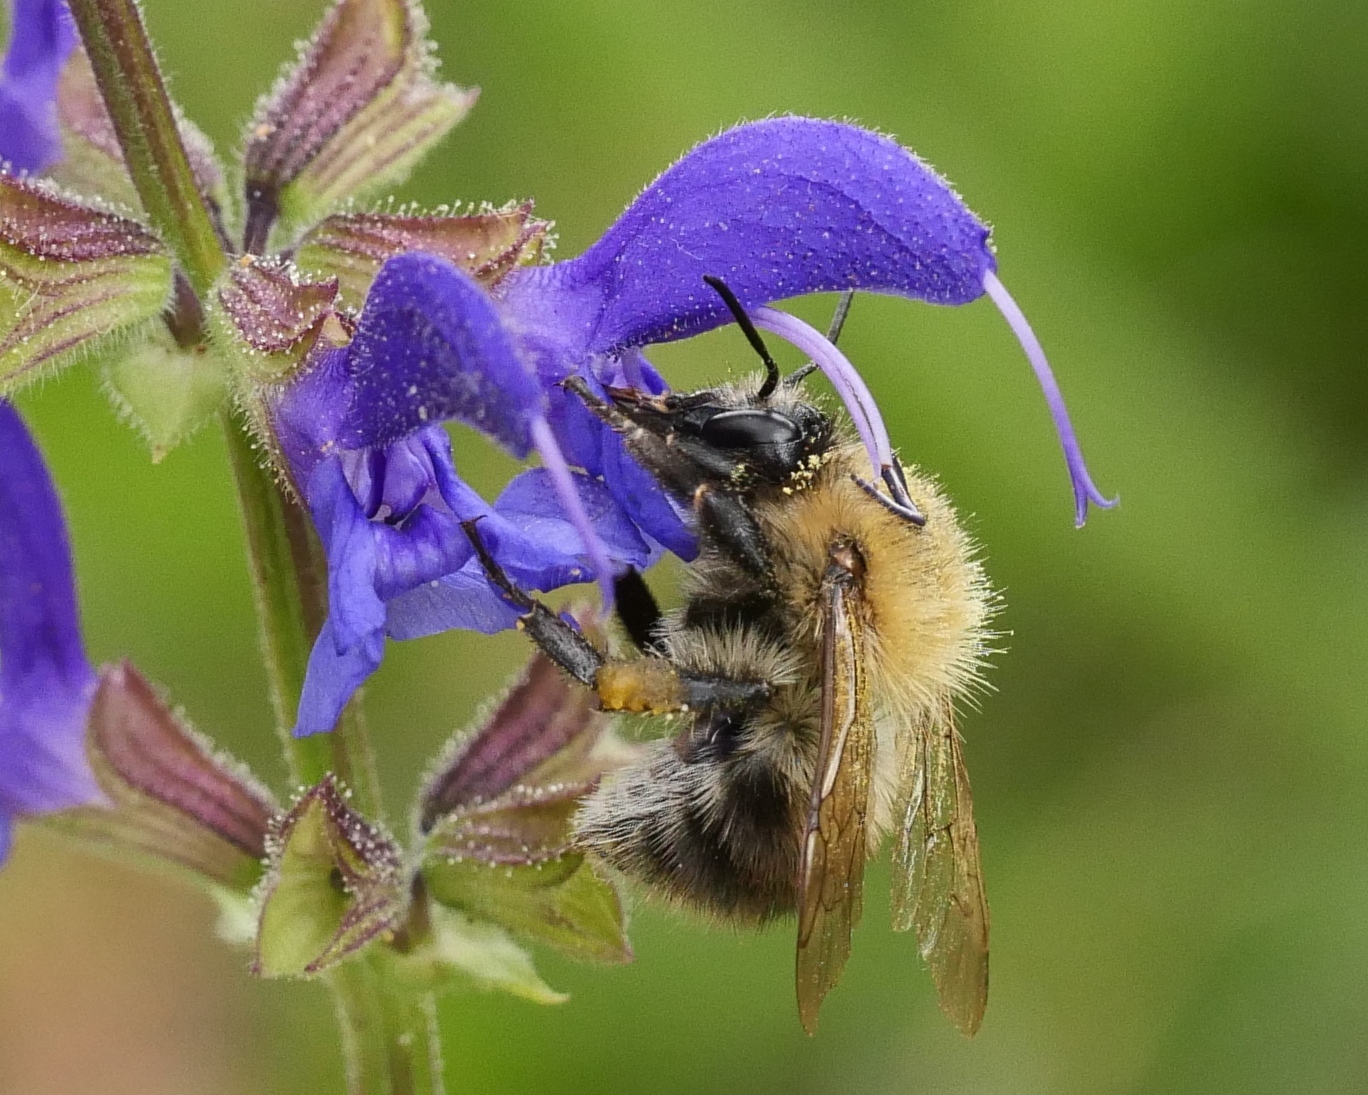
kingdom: Animalia
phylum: Arthropoda
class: Insecta
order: Hymenoptera
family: Apidae
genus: Bombus
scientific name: Bombus pascuorum
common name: Common carder bee
